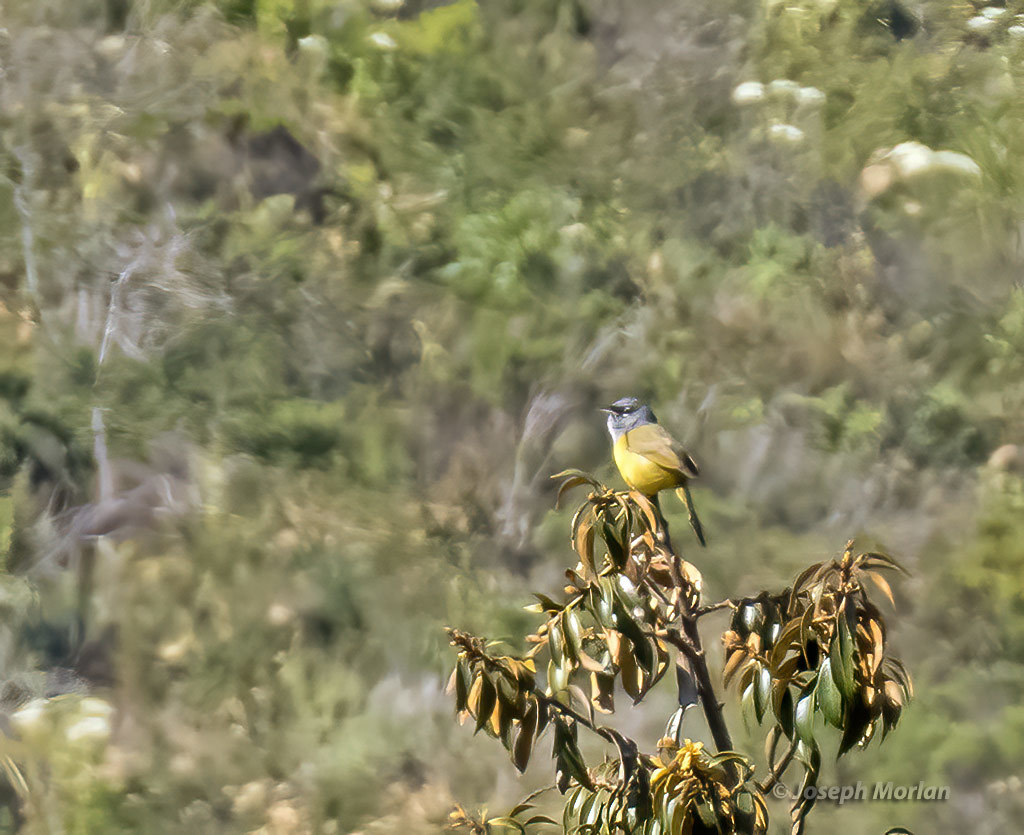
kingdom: Animalia
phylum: Chordata
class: Aves
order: Passeriformes
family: Parulidae
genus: Geothlypis
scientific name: Geothlypis tolmiei
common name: Macgillivray's warbler
